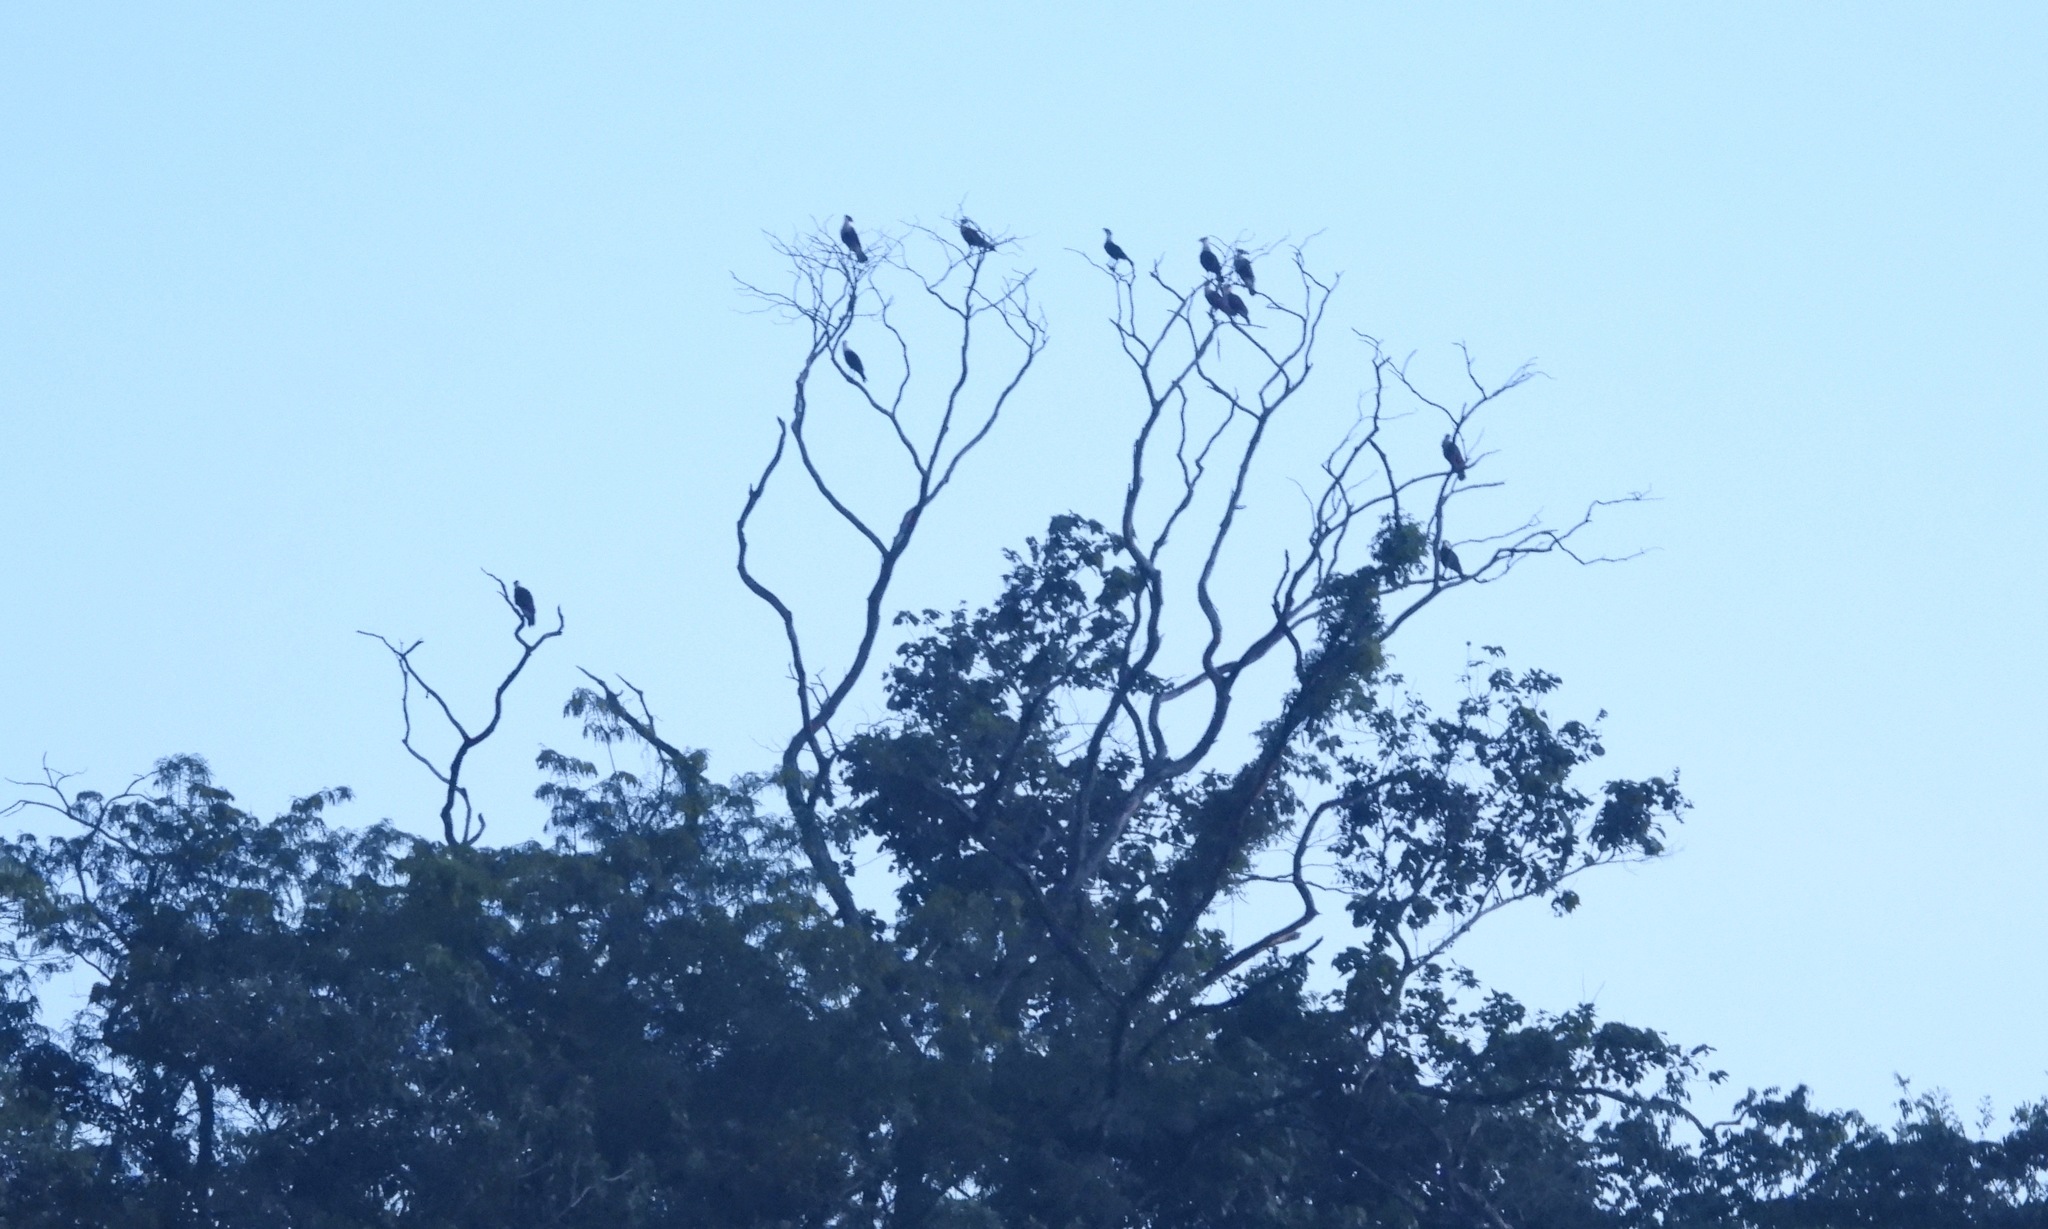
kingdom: Animalia
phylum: Chordata
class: Aves
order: Falconiformes
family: Falconidae
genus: Caracara
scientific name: Caracara plancus
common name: Southern caracara
